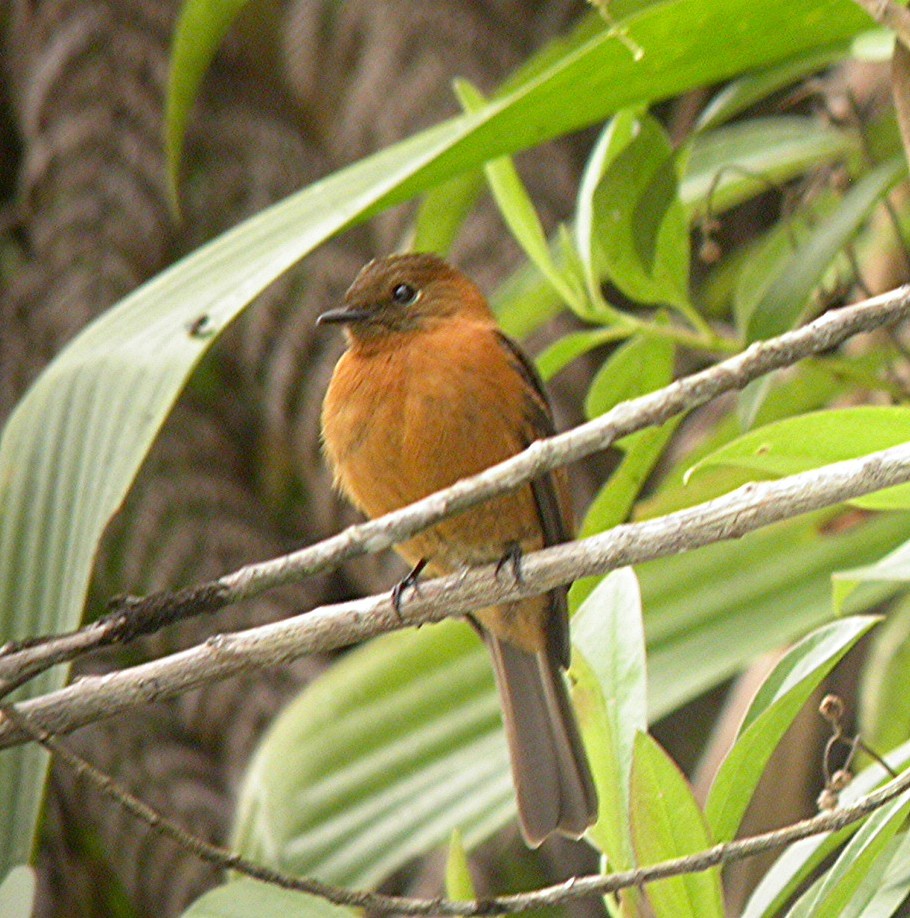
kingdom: Animalia
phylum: Chordata
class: Aves
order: Passeriformes
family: Tyrannidae
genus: Pyrrhomyias
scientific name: Pyrrhomyias cinnamomeus
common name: Cinnamon flycatcher
